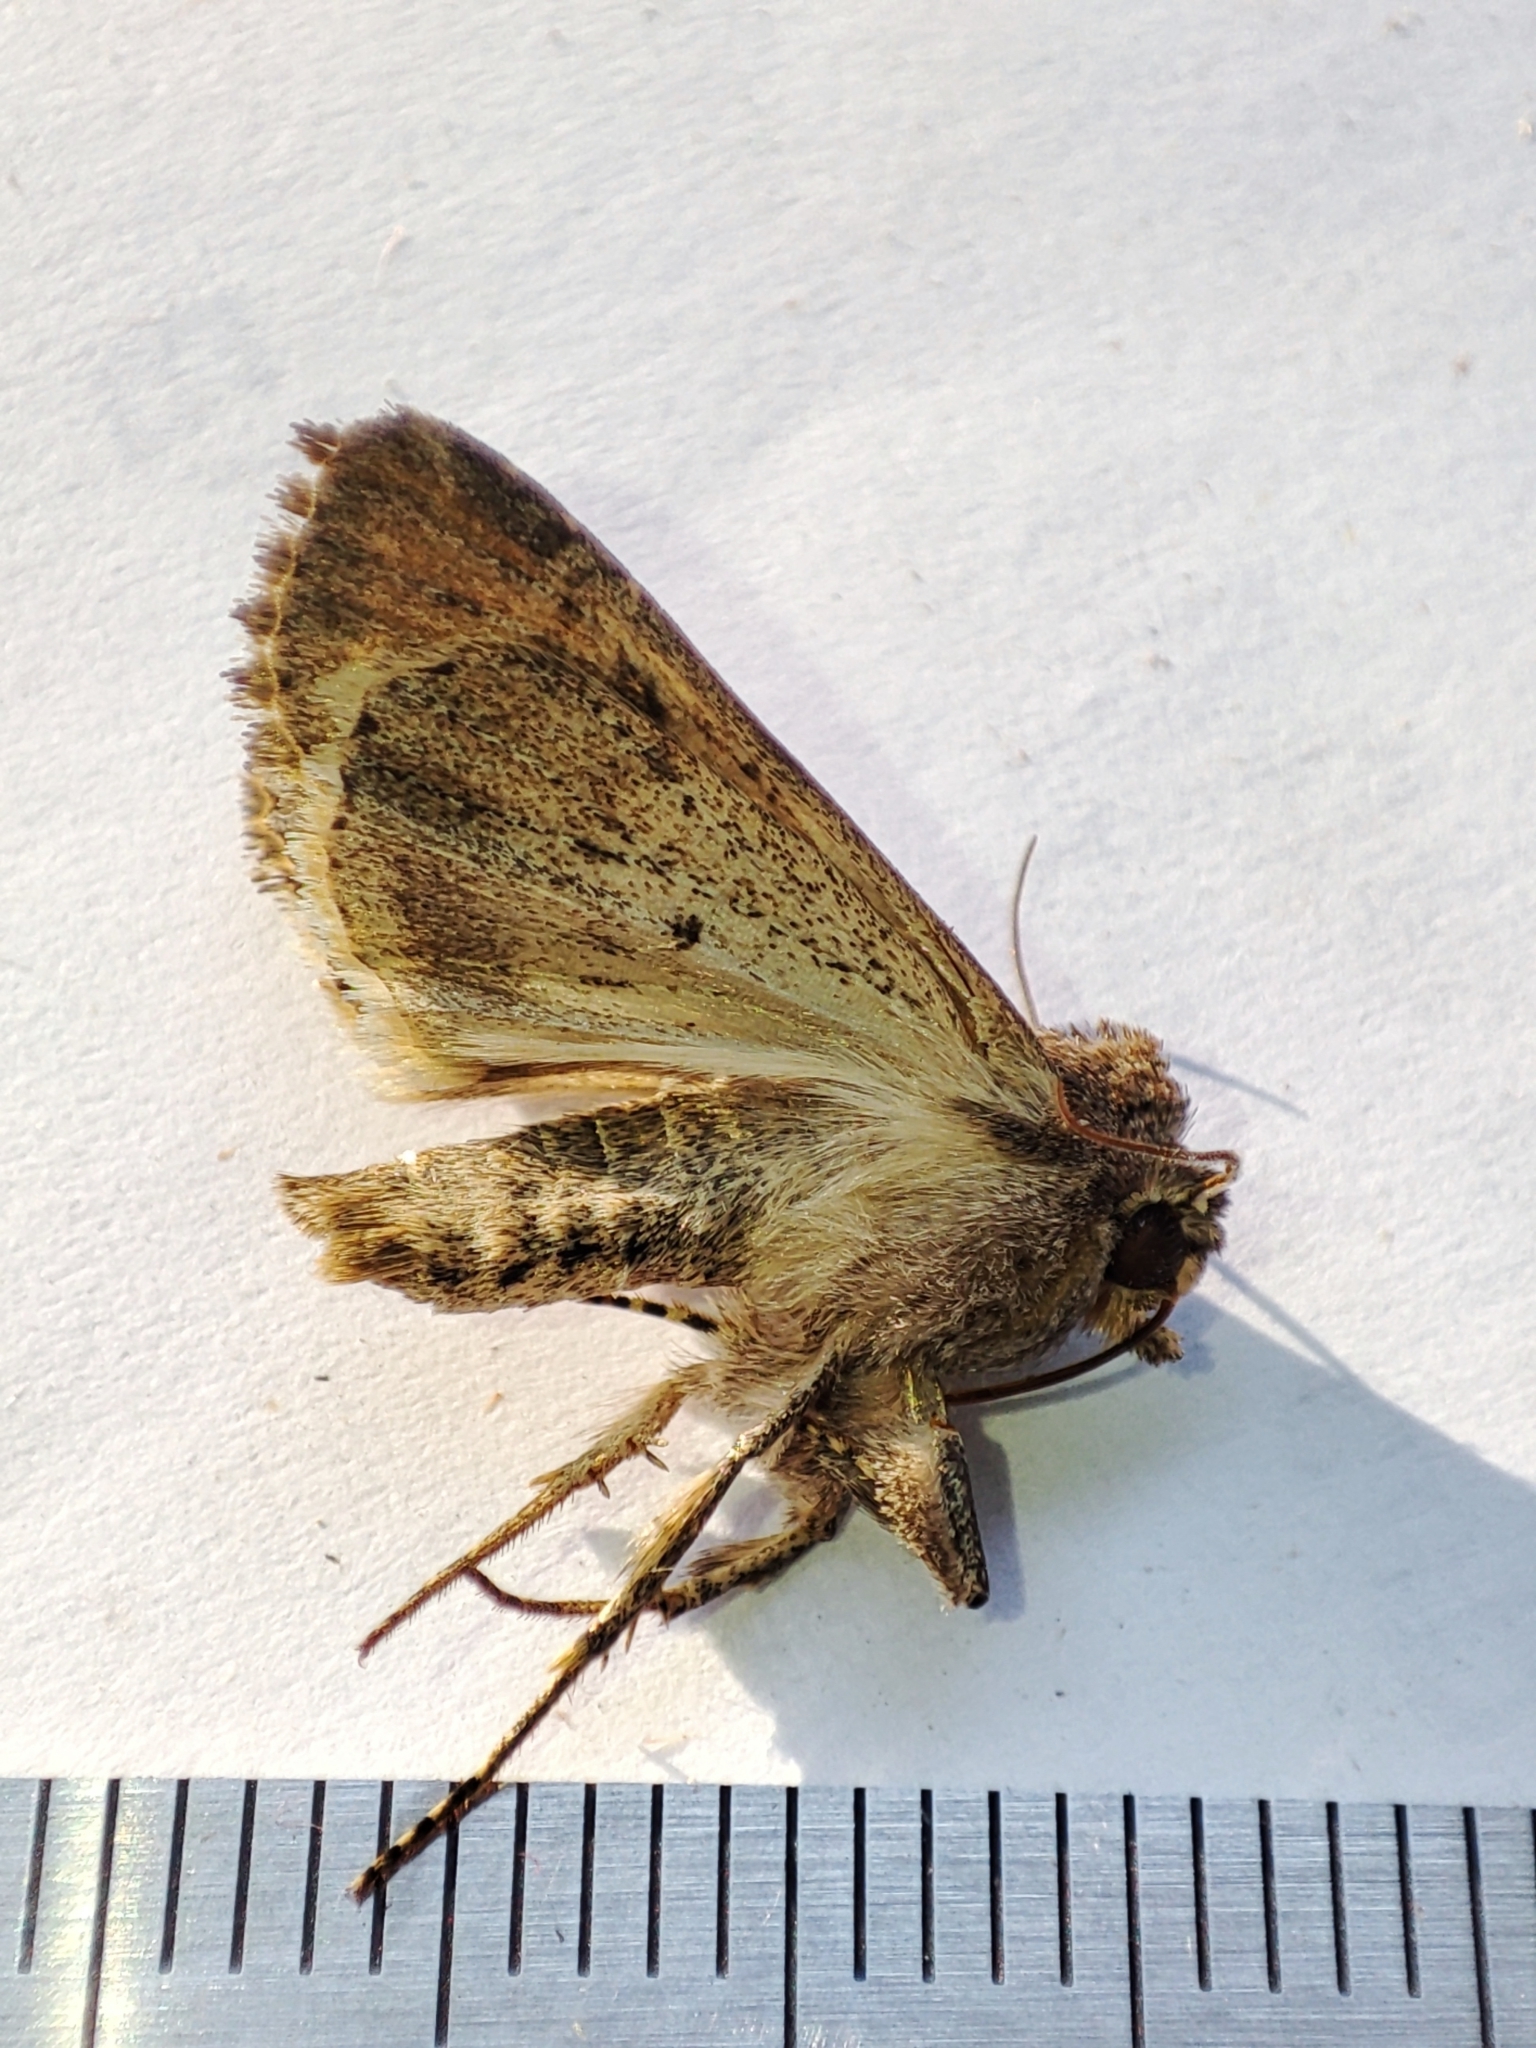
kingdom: Animalia
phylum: Arthropoda
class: Insecta
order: Lepidoptera
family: Noctuidae
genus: Anarta
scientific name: Anarta trifolii
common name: Clover cutworm moth
